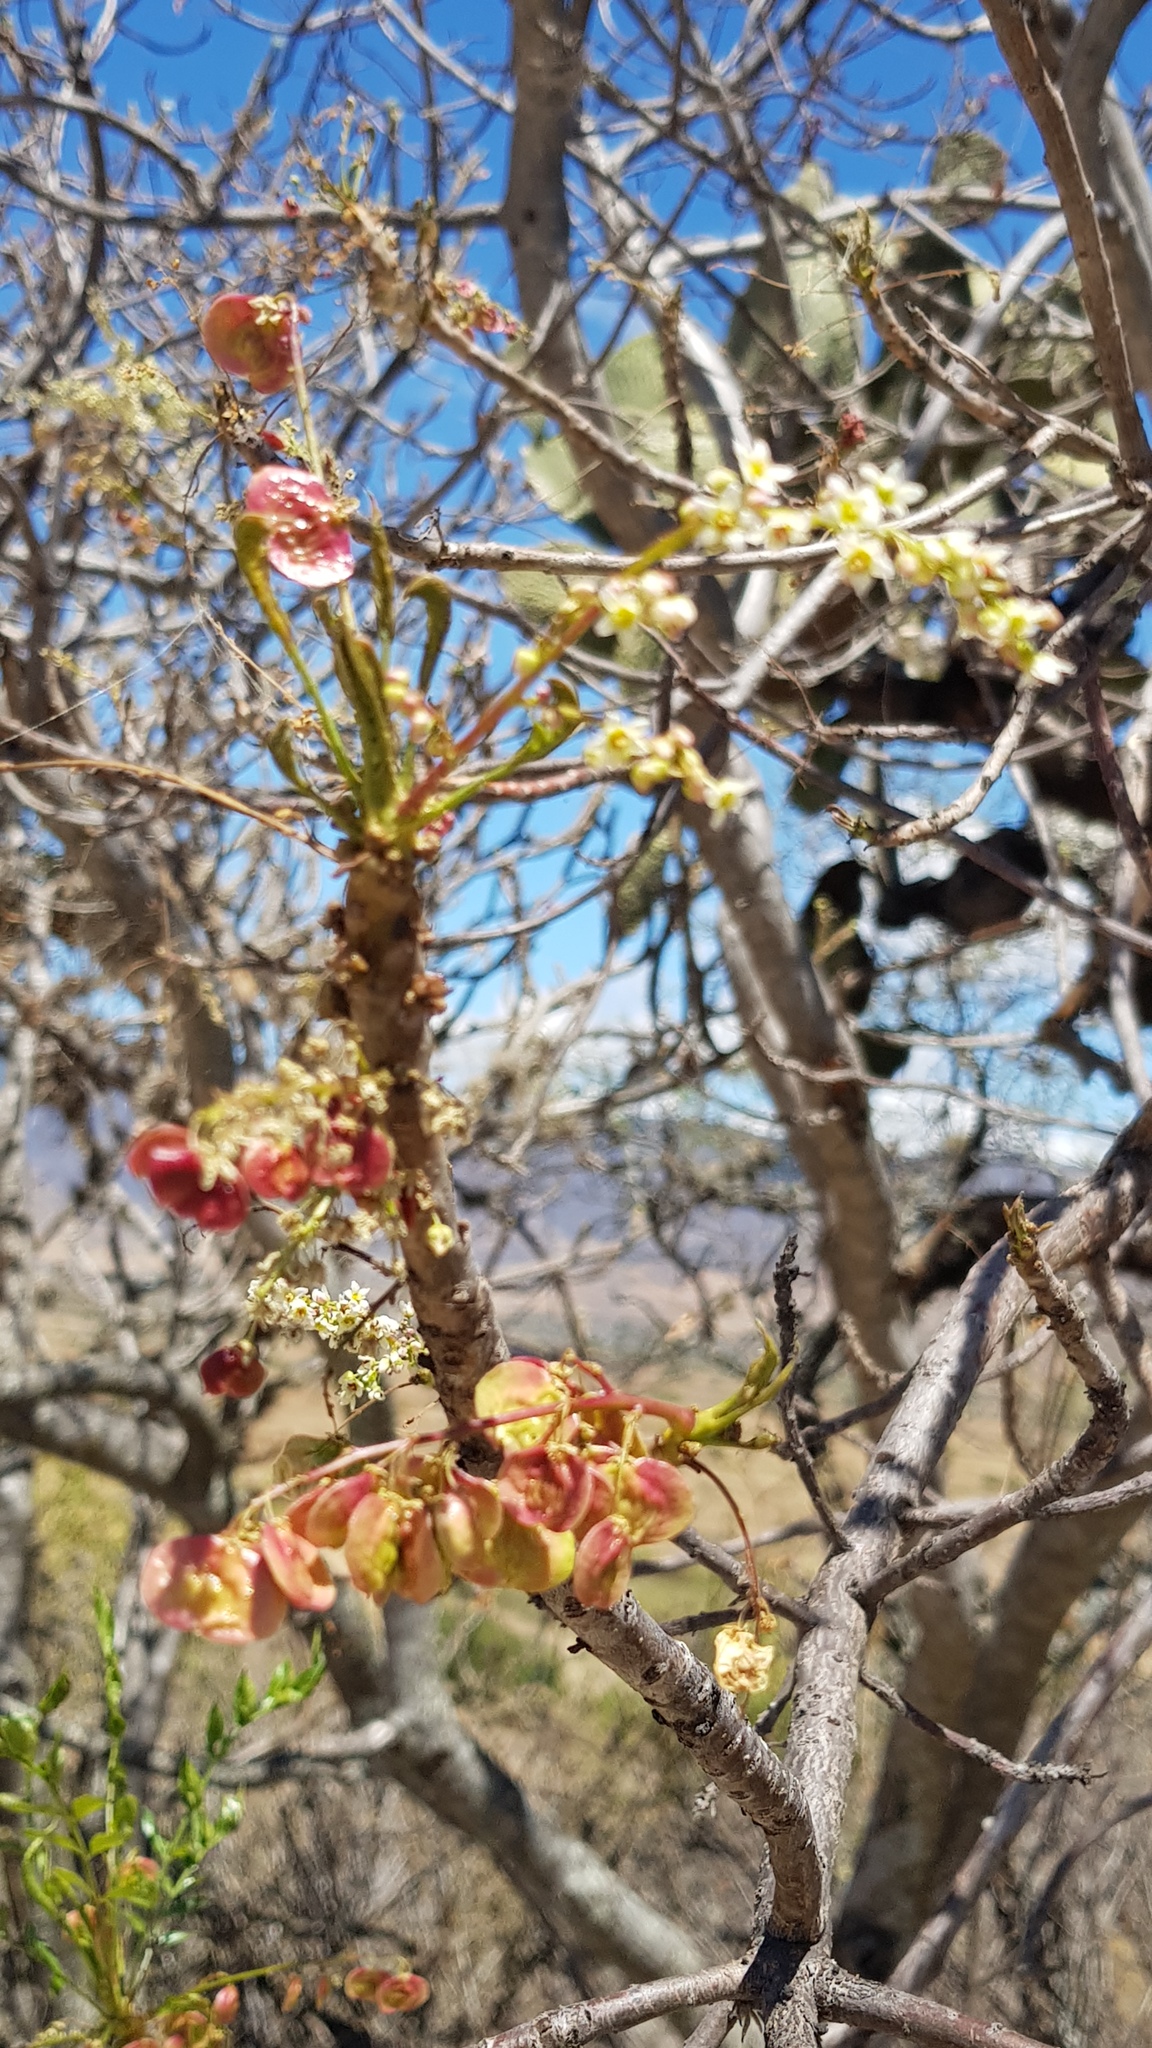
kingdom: Plantae
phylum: Tracheophyta
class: Magnoliopsida
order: Sapindales
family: Anacardiaceae
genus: Pseudosmodingium
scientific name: Pseudosmodingium andrieuxii
